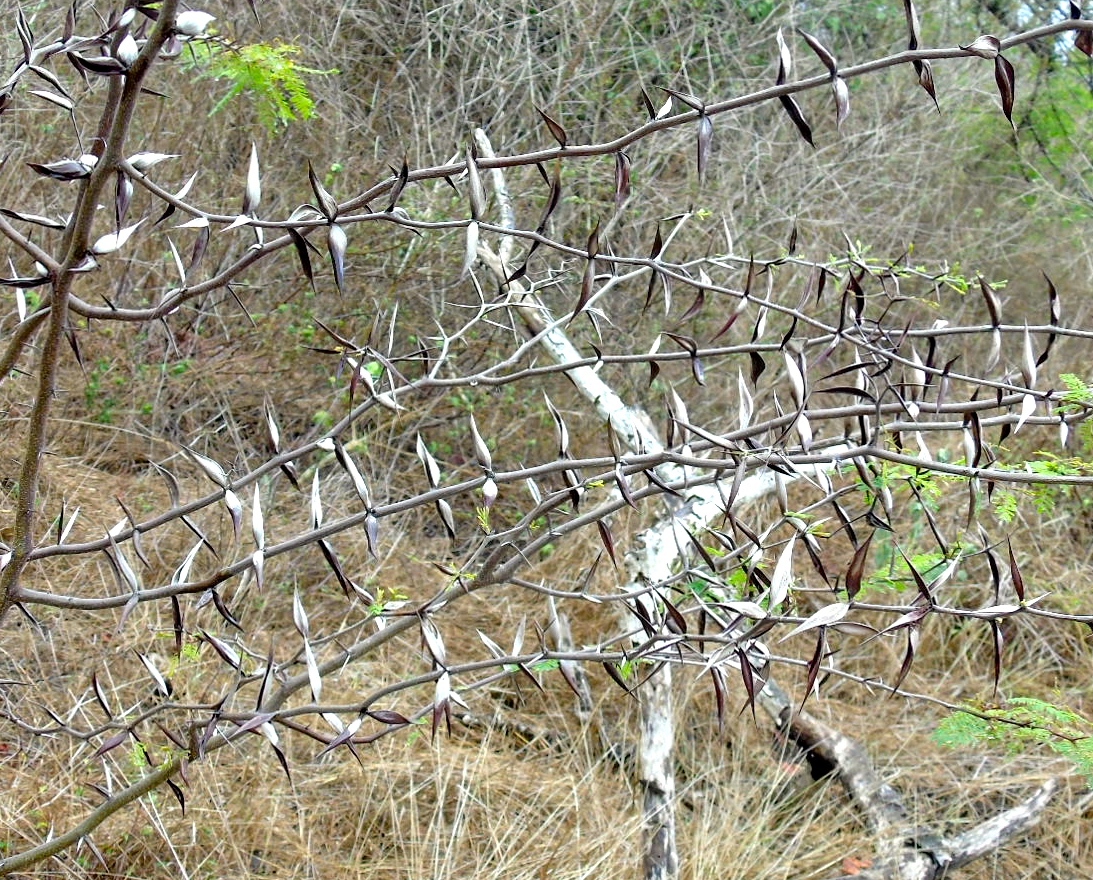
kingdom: Plantae
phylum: Tracheophyta
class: Magnoliopsida
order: Fabales
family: Fabaceae
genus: Vachellia
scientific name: Vachellia campechiana
